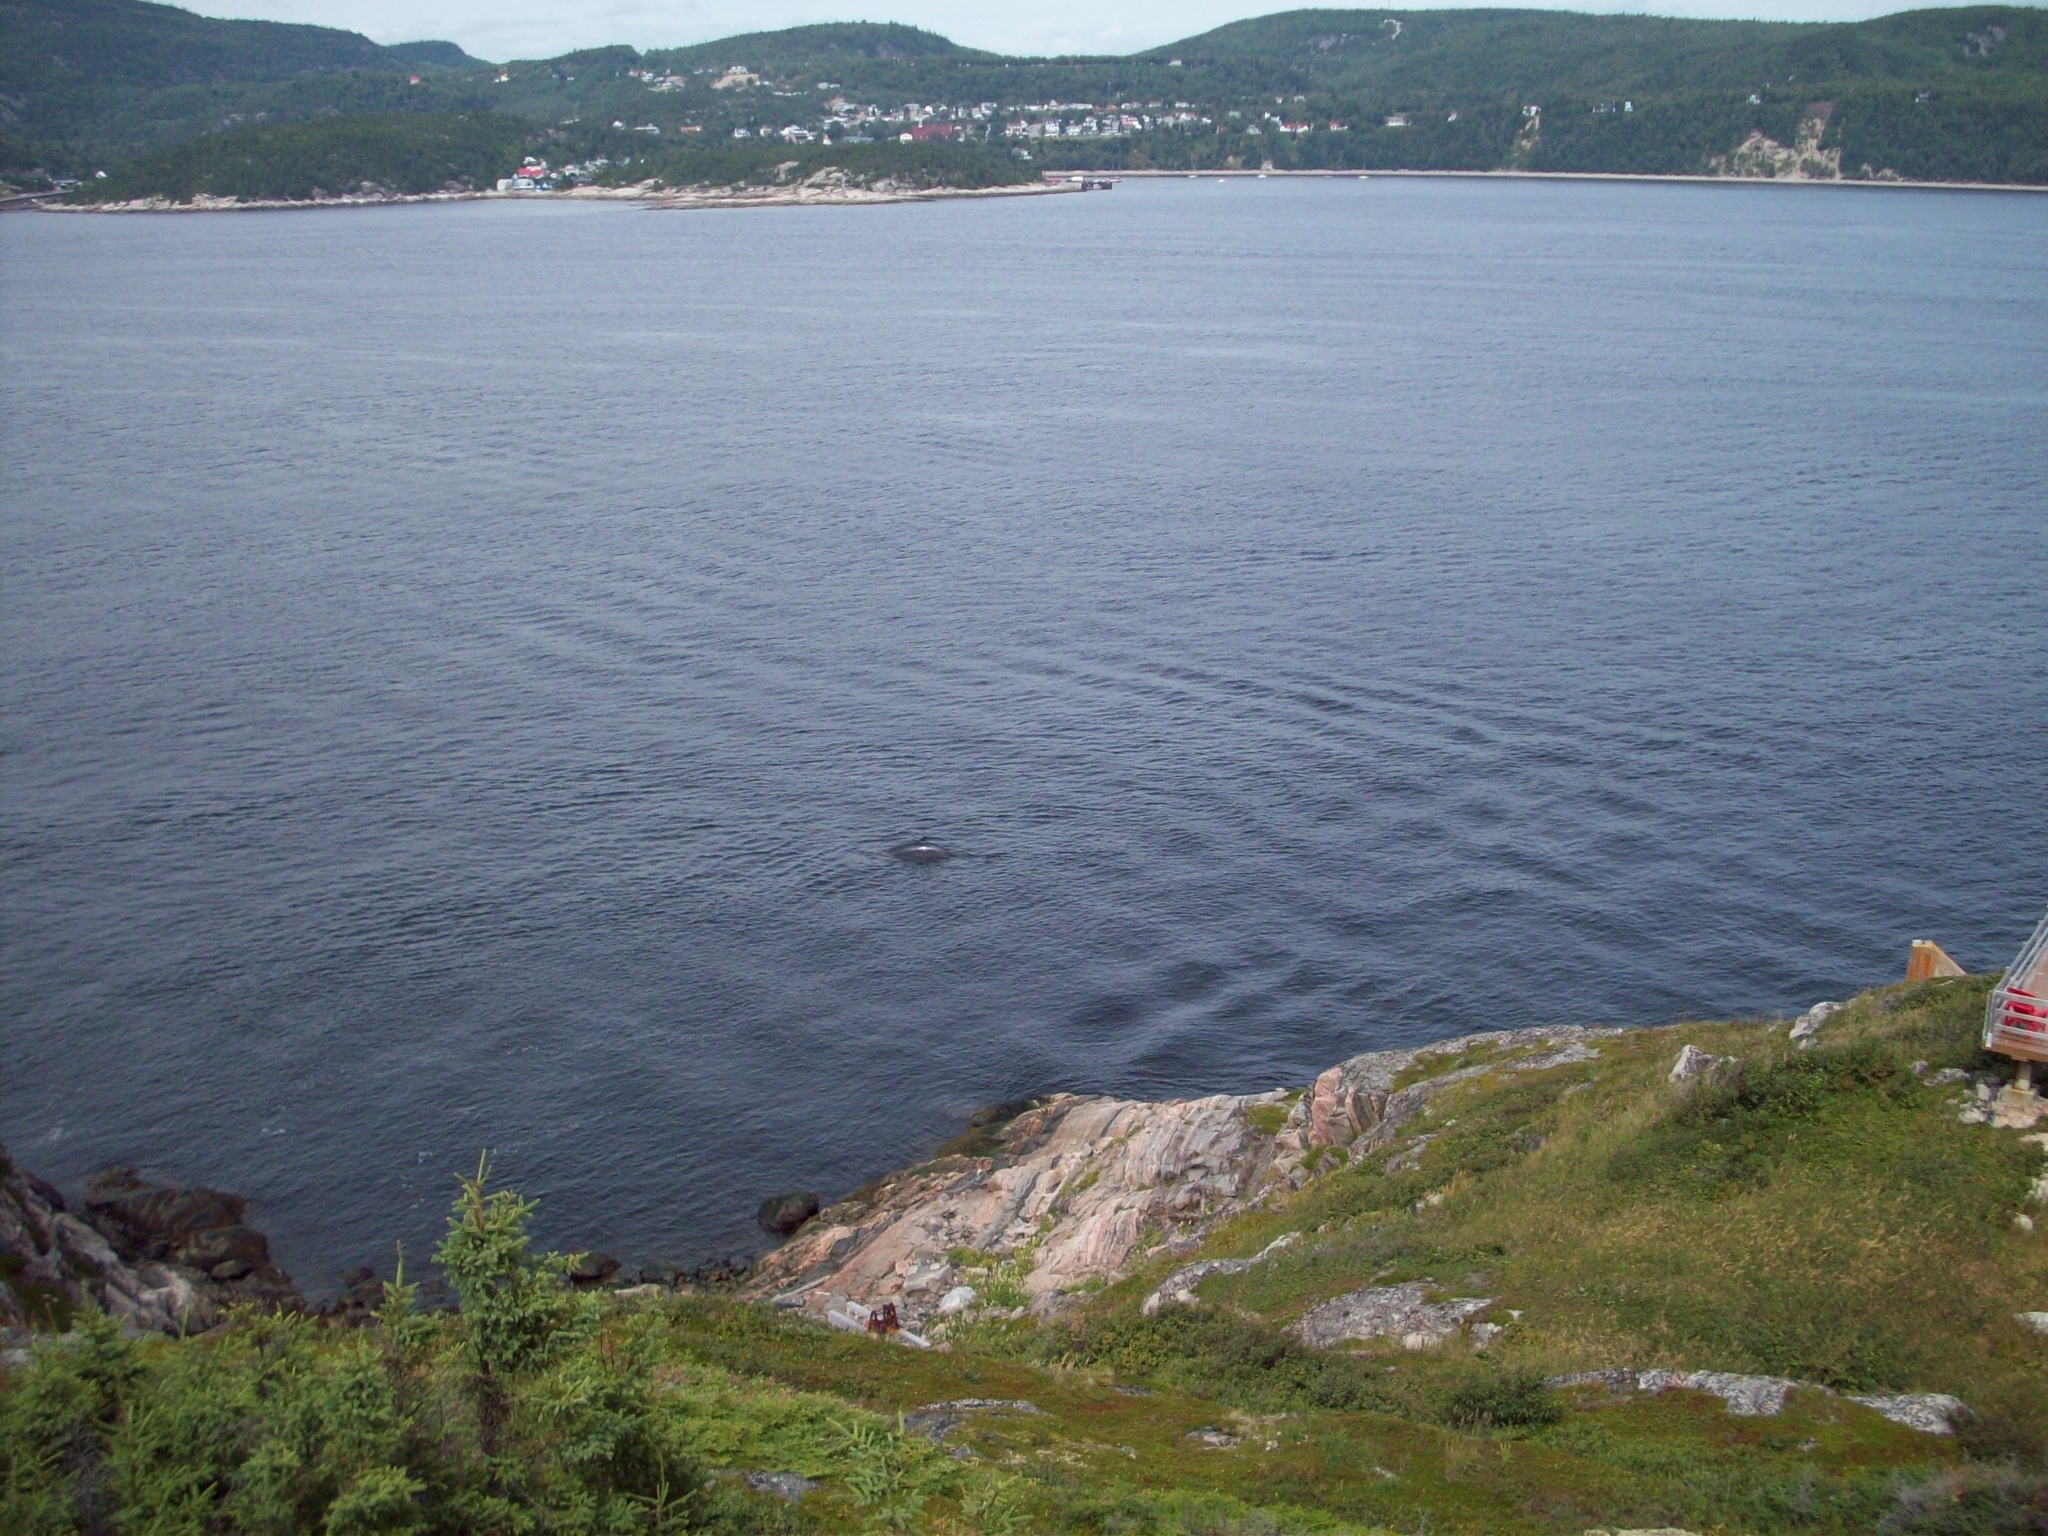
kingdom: Animalia
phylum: Chordata
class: Mammalia
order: Cetacea
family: Balaenopteridae
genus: Balaenoptera
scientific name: Balaenoptera acutorostrata
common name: Common minke whale
